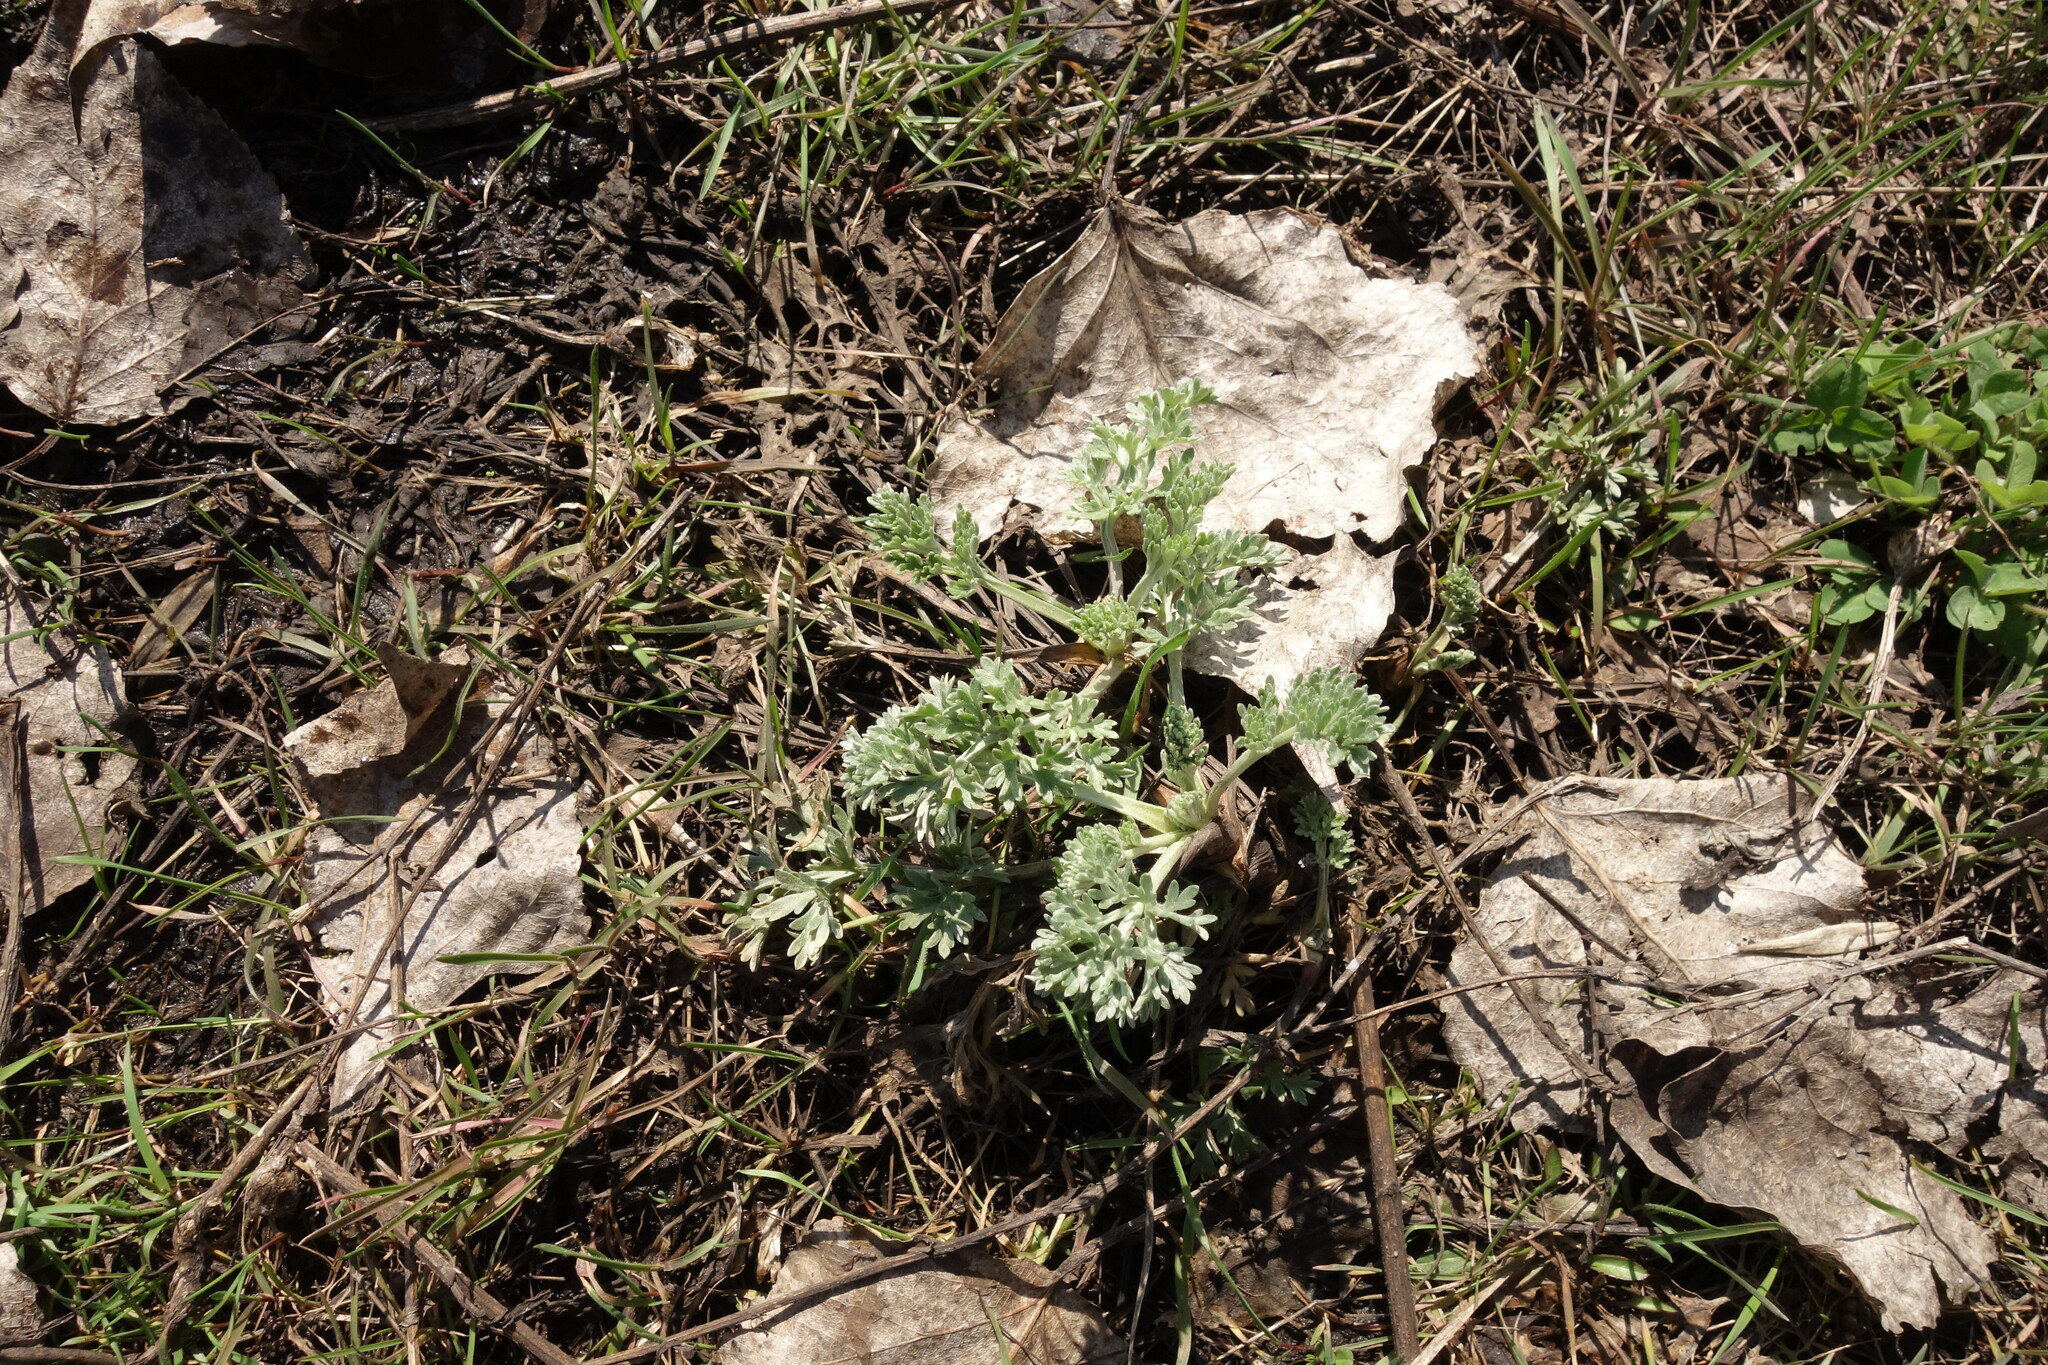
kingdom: Plantae
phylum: Tracheophyta
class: Magnoliopsida
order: Asterales
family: Asteraceae
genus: Artemisia
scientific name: Artemisia absinthium
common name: Wormwood
